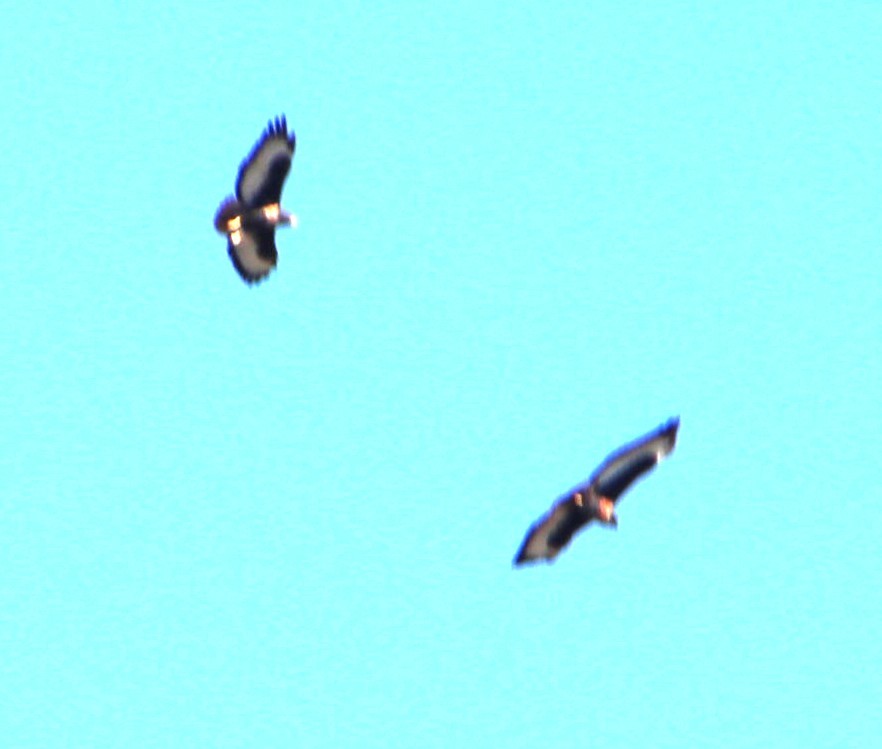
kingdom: Animalia
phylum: Chordata
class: Aves
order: Accipitriformes
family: Accipitridae
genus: Buteo
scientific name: Buteo rufofuscus
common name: Jackal buzzard
